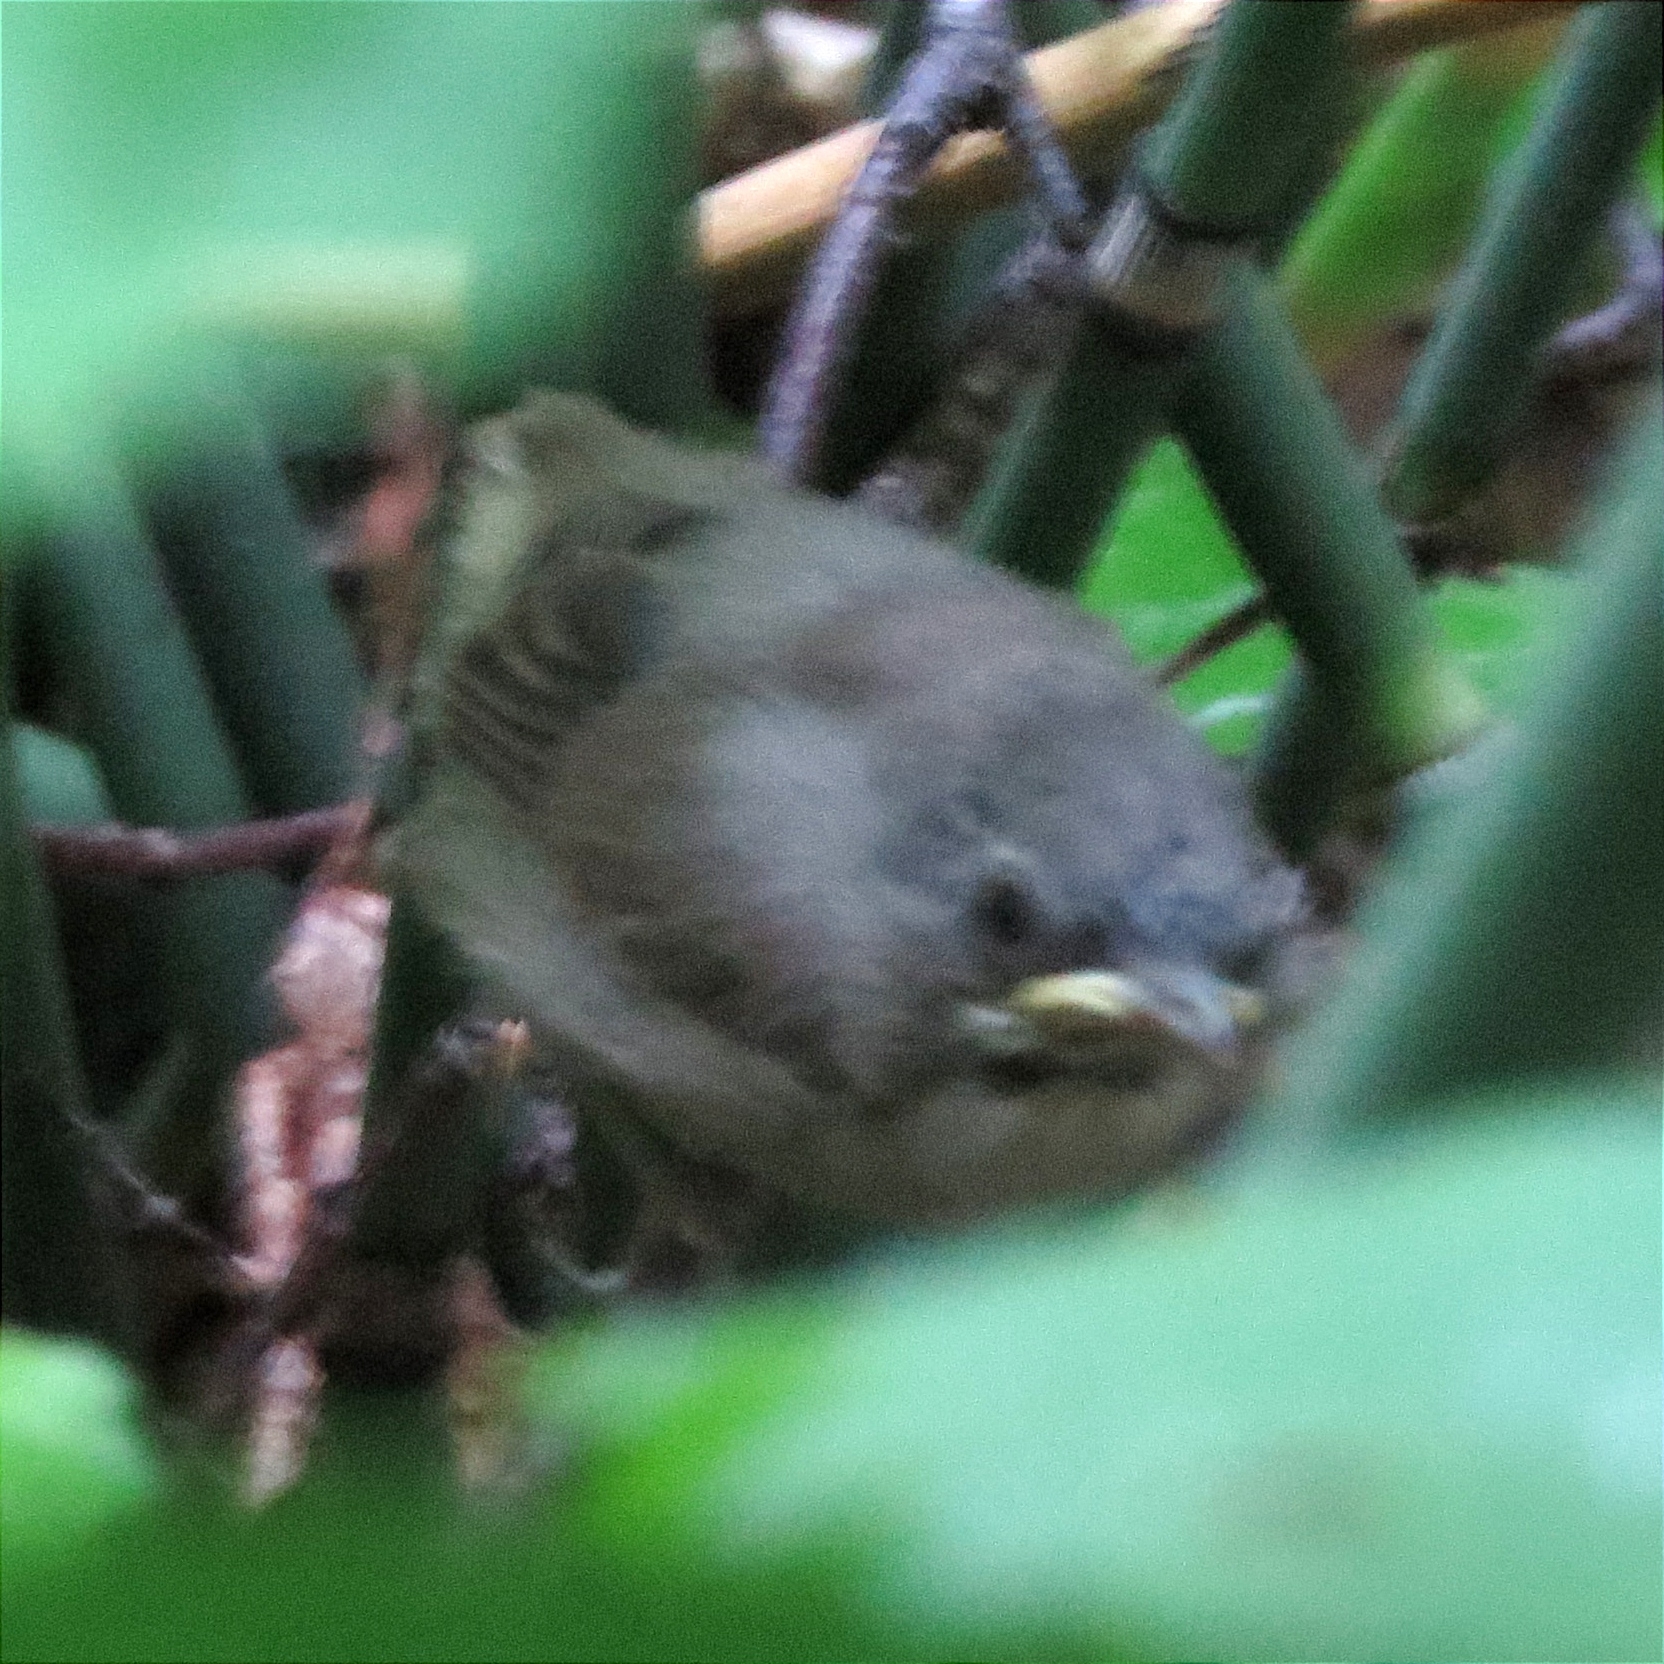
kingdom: Animalia
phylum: Chordata
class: Aves
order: Passeriformes
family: Sylviidae
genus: Sylvia
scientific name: Sylvia curruca
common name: Lesser whitethroat
